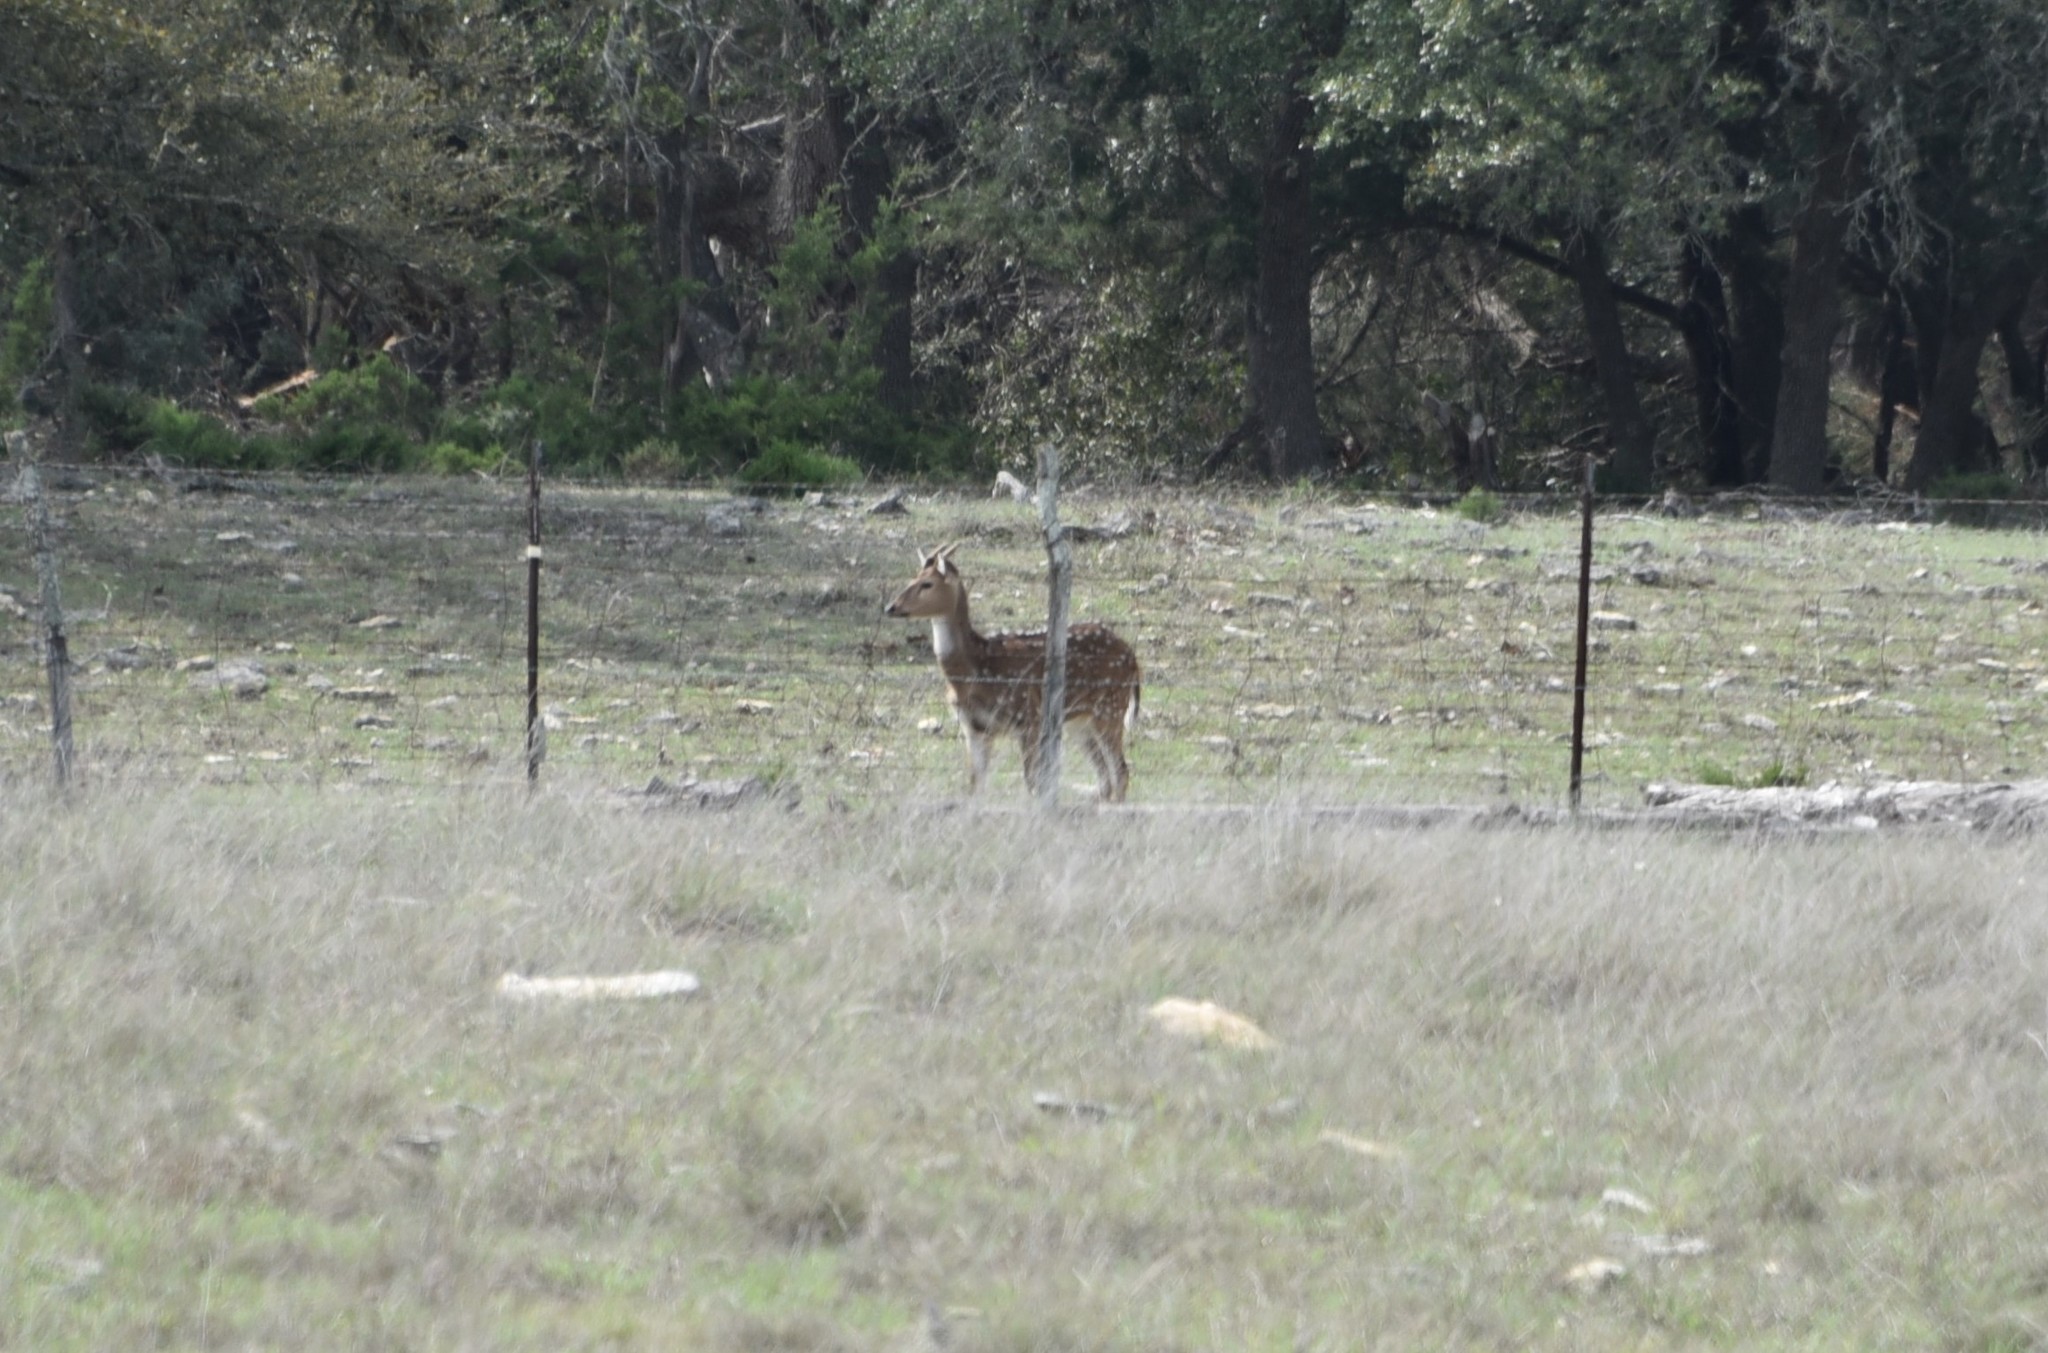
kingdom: Animalia
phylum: Chordata
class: Mammalia
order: Artiodactyla
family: Cervidae
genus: Axis
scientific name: Axis axis
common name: Chital
